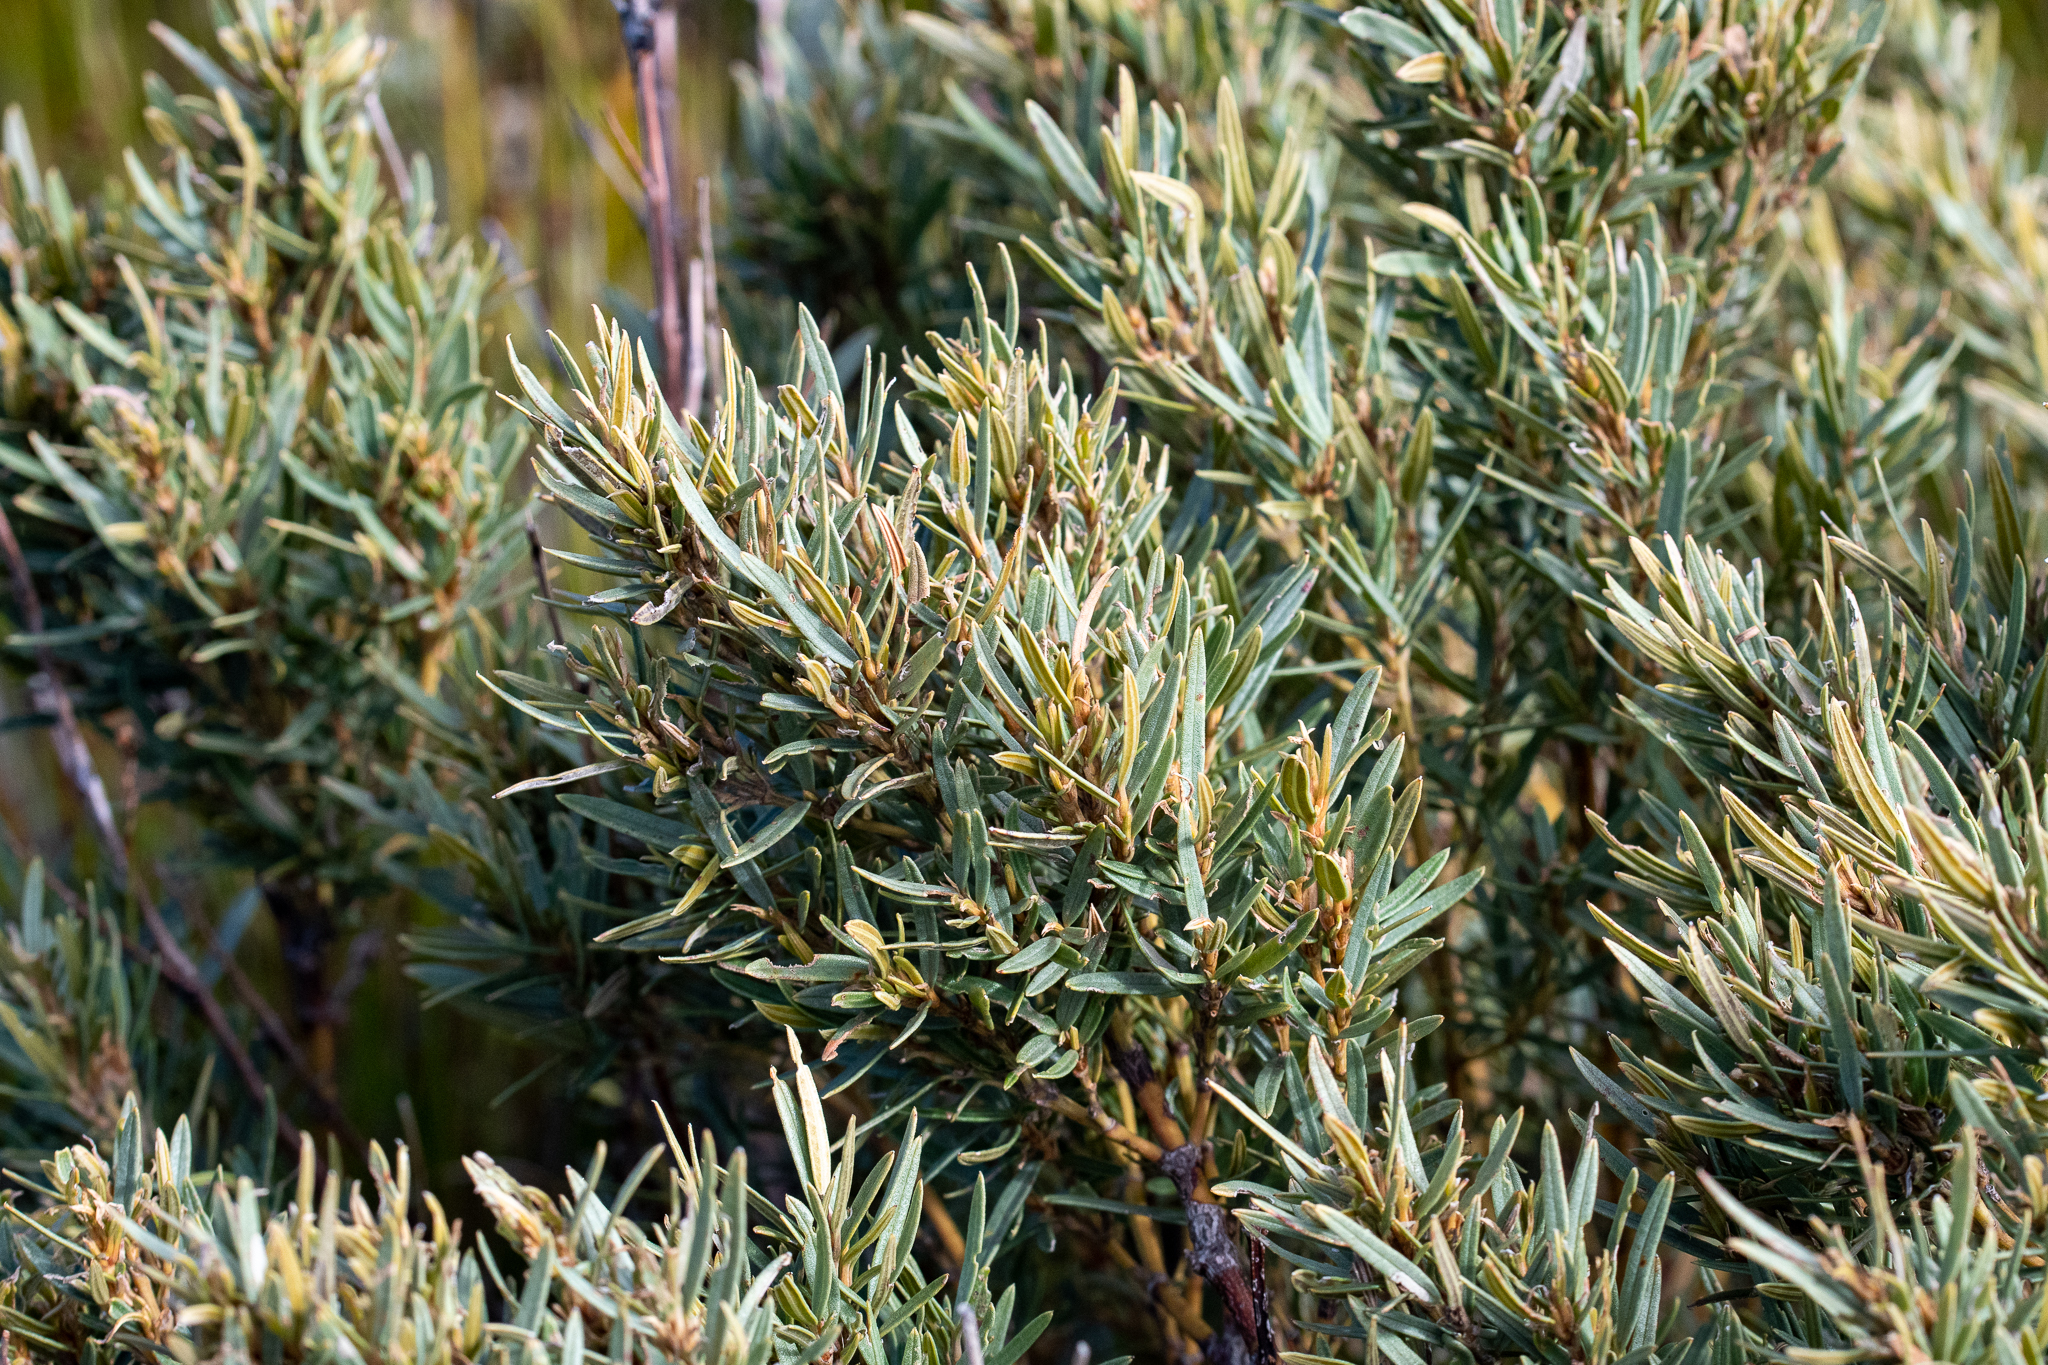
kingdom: Plantae
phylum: Tracheophyta
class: Magnoliopsida
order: Cornales
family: Grubbiaceae
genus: Grubbia
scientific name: Grubbia tomentosa
